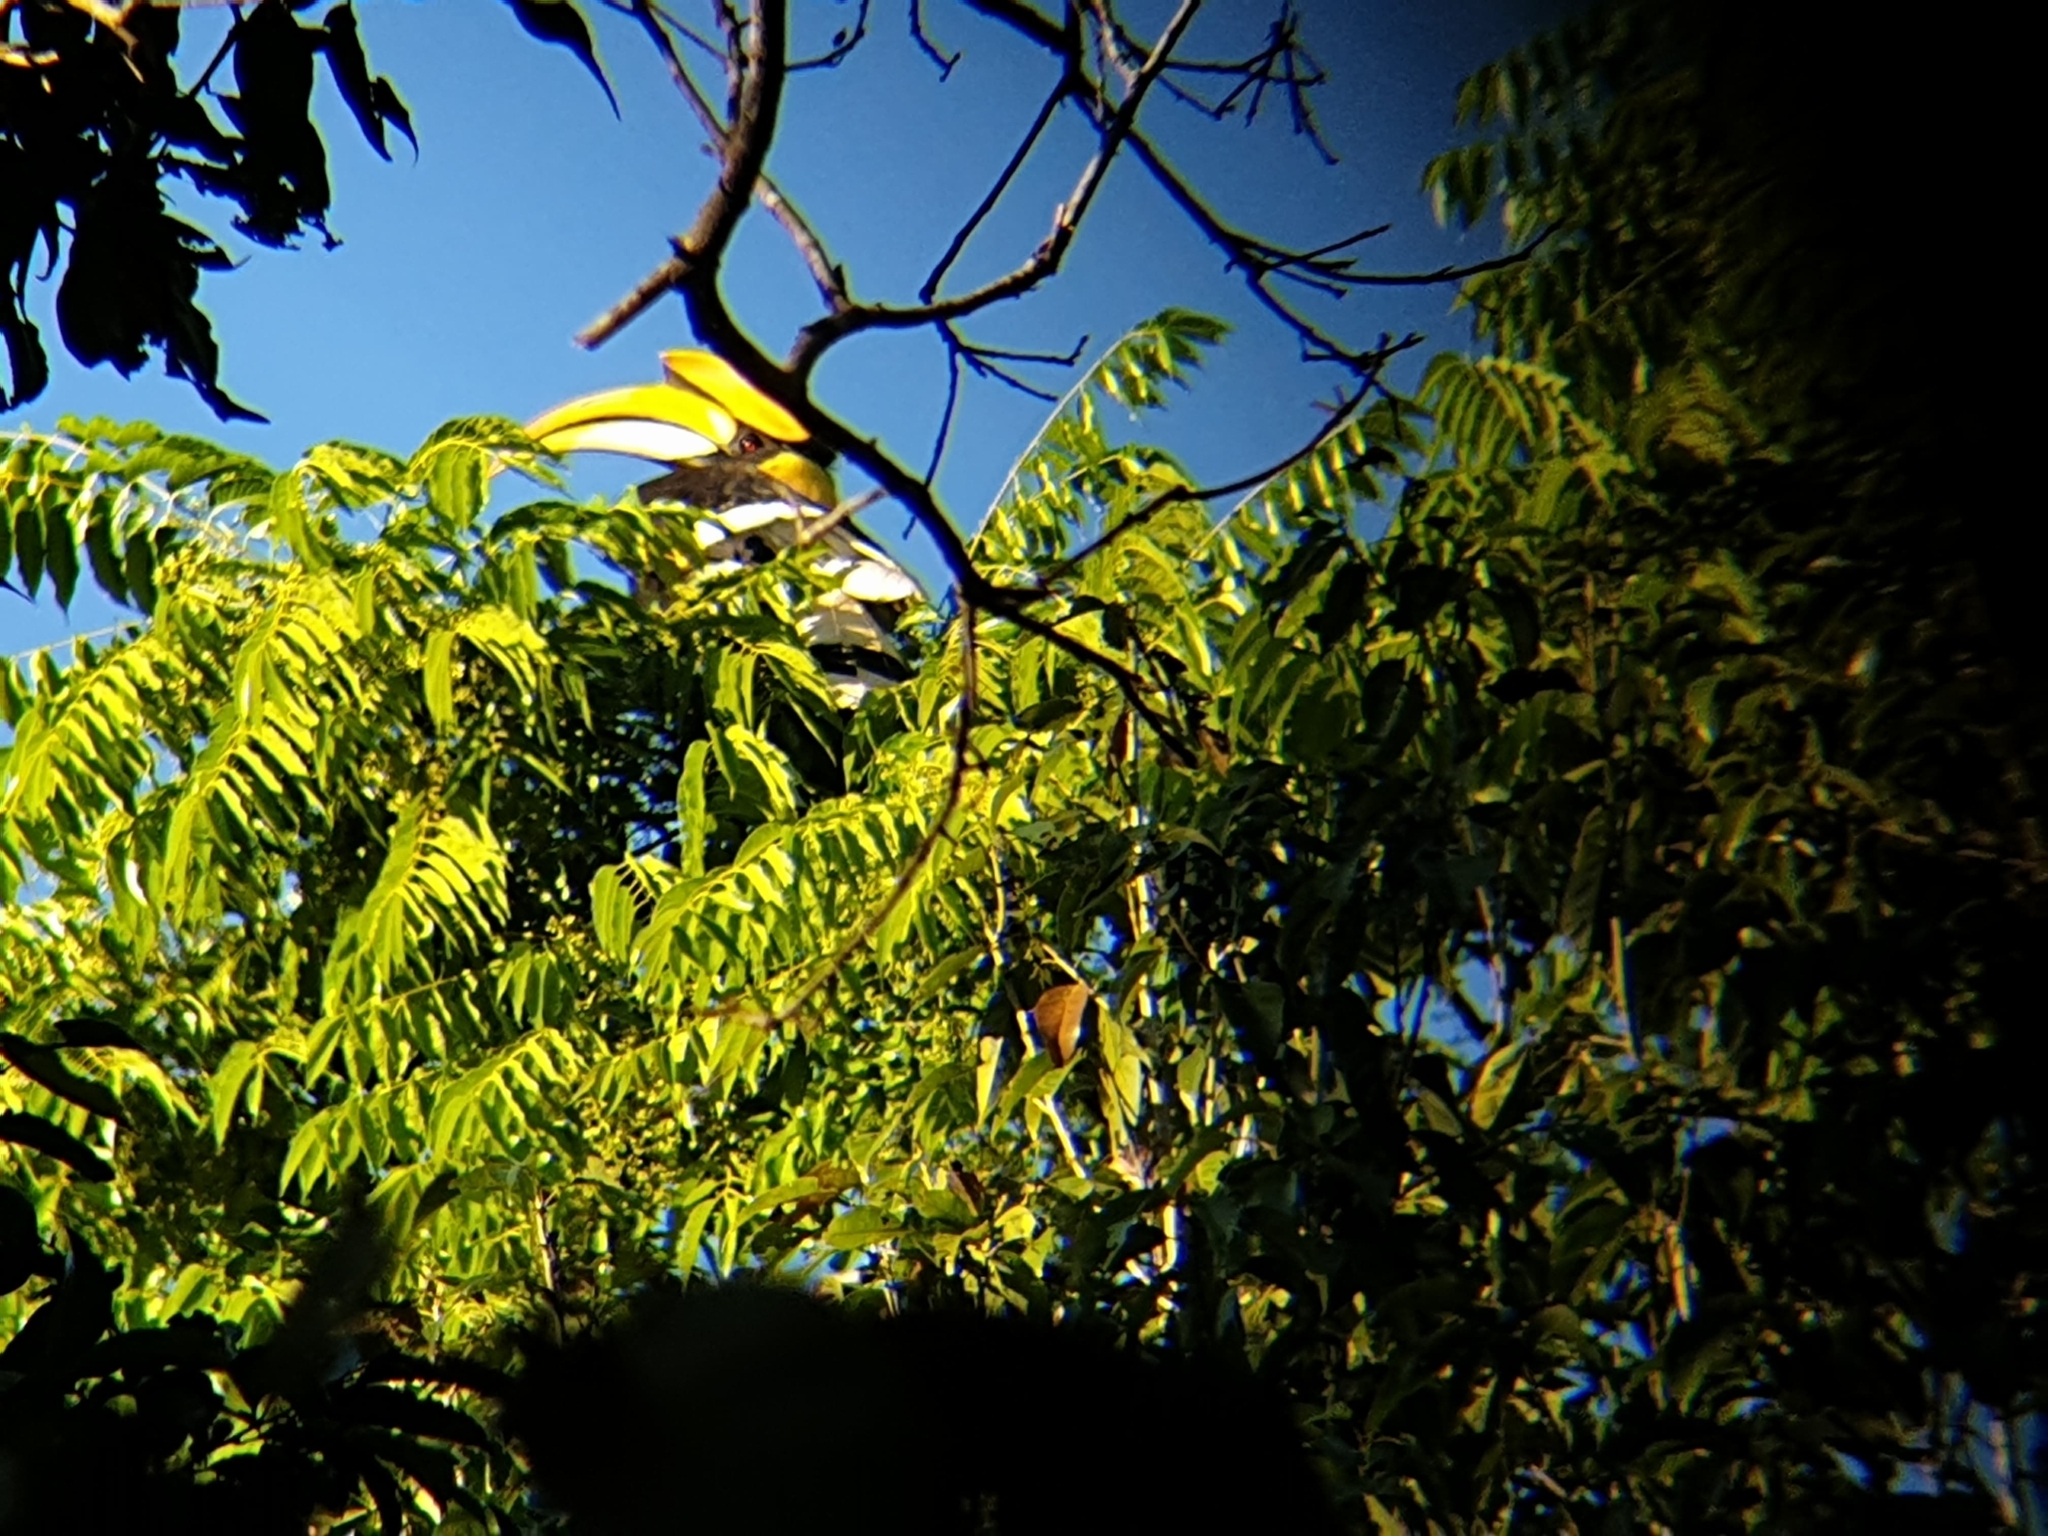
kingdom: Animalia
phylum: Chordata
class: Aves
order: Bucerotiformes
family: Bucerotidae
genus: Buceros
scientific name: Buceros bicornis
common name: Great hornbill
